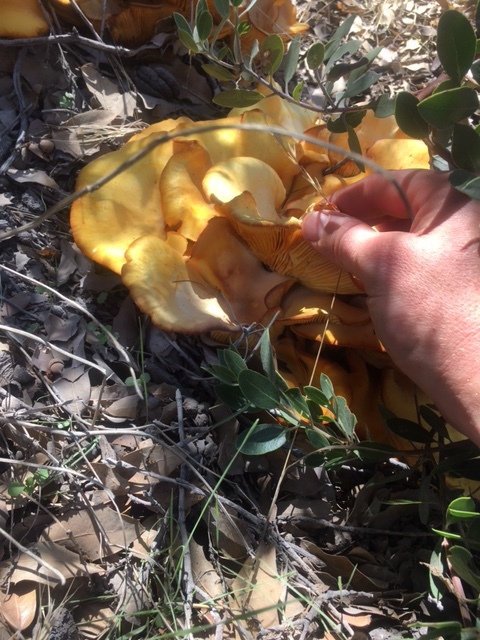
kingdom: Fungi
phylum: Basidiomycota
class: Agaricomycetes
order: Agaricales
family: Omphalotaceae
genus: Omphalotus
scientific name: Omphalotus subilludens
